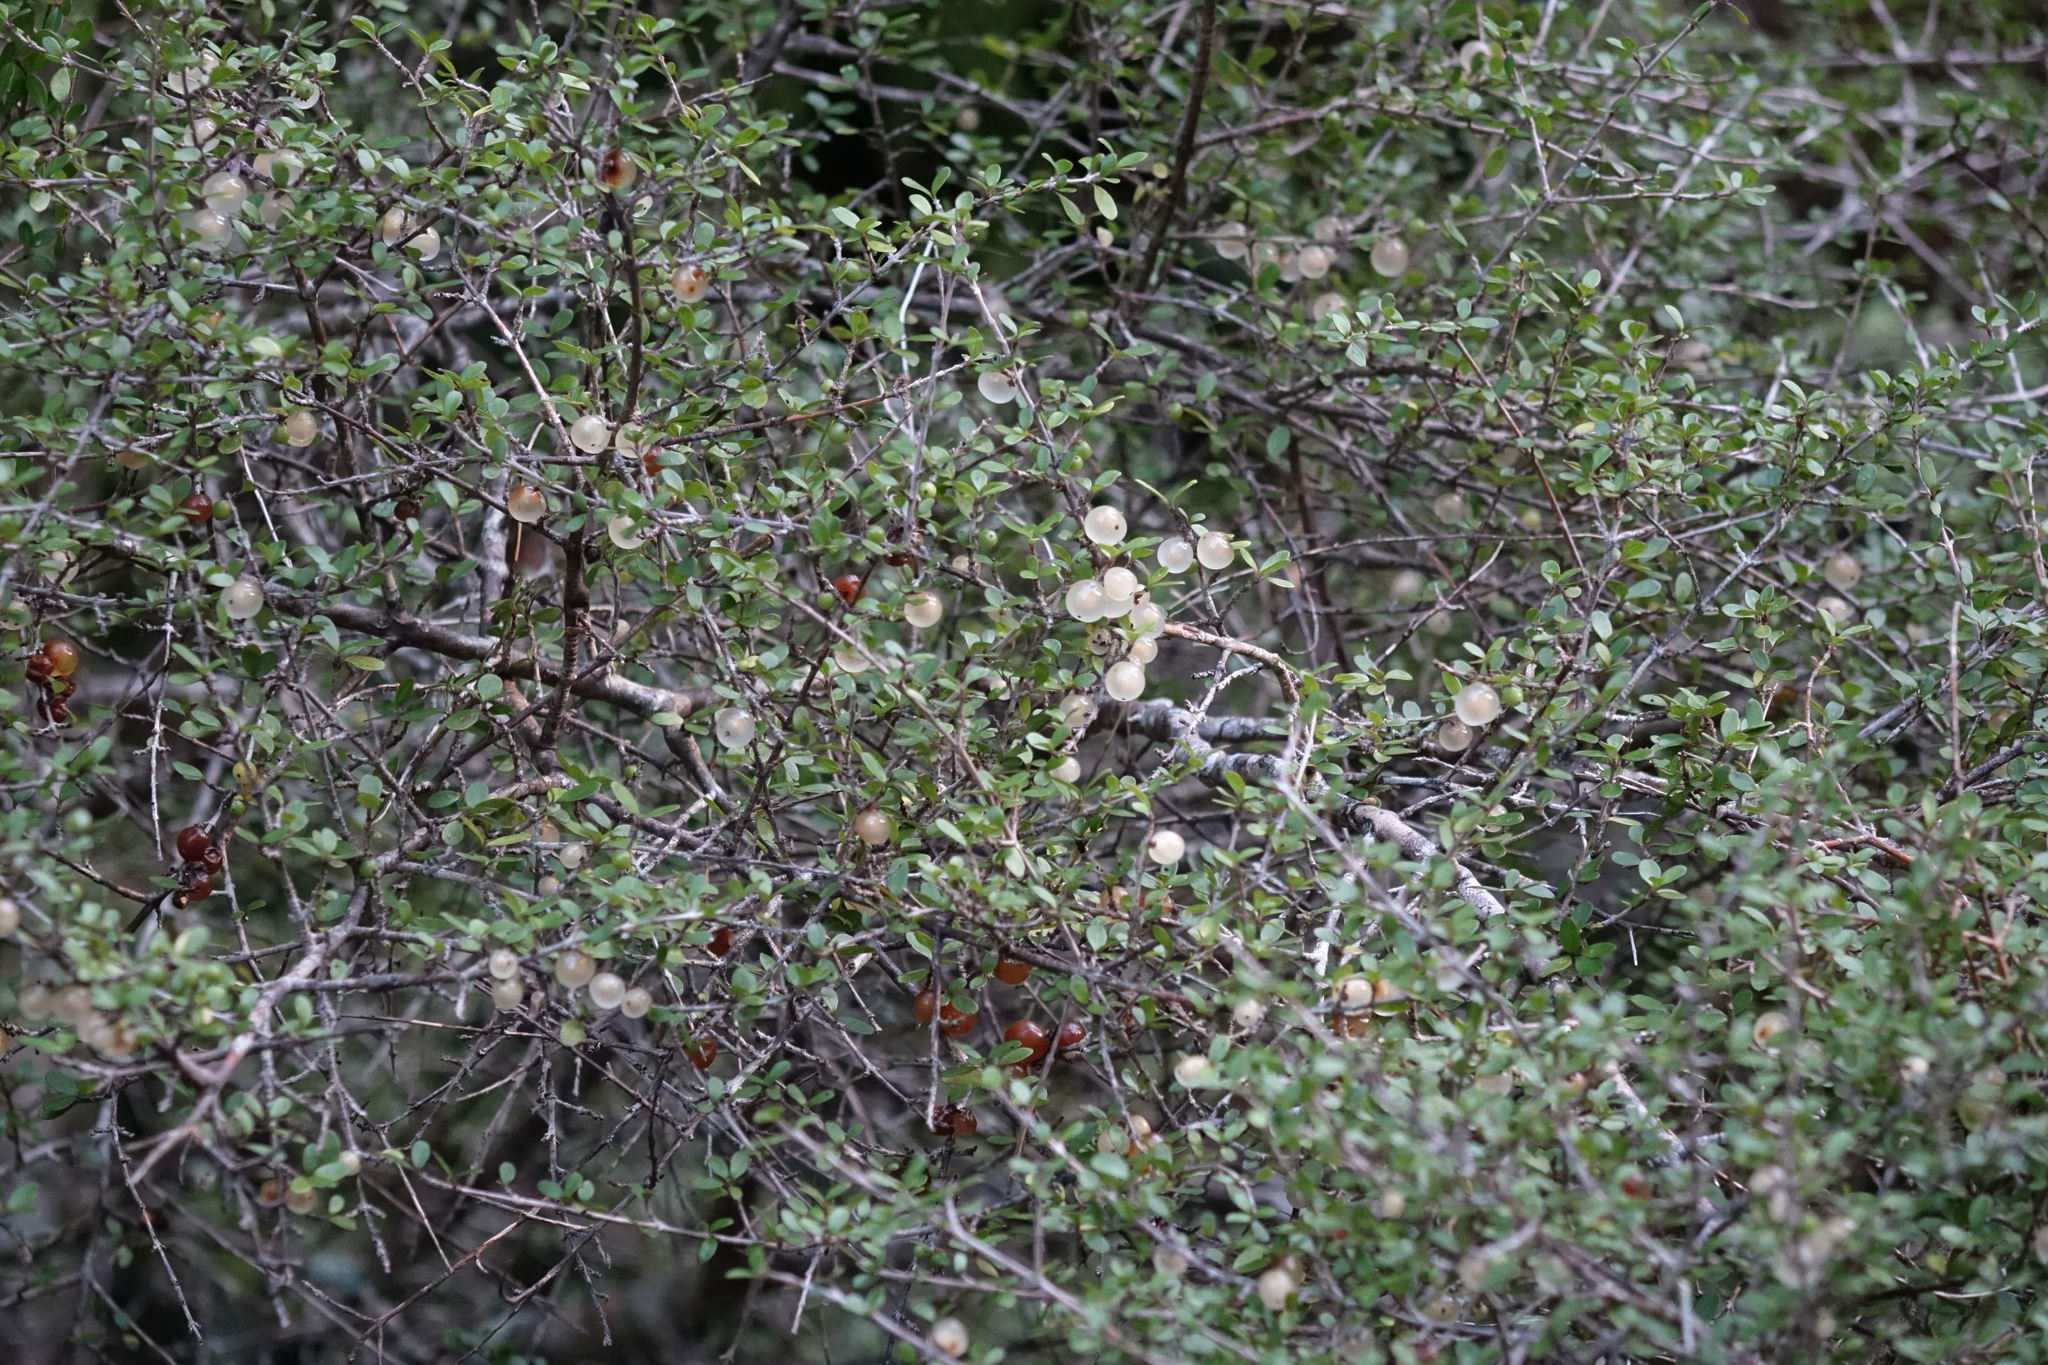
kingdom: Plantae
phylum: Tracheophyta
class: Magnoliopsida
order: Gentianales
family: Rubiaceae
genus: Coprosma
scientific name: Coprosma dumosa
